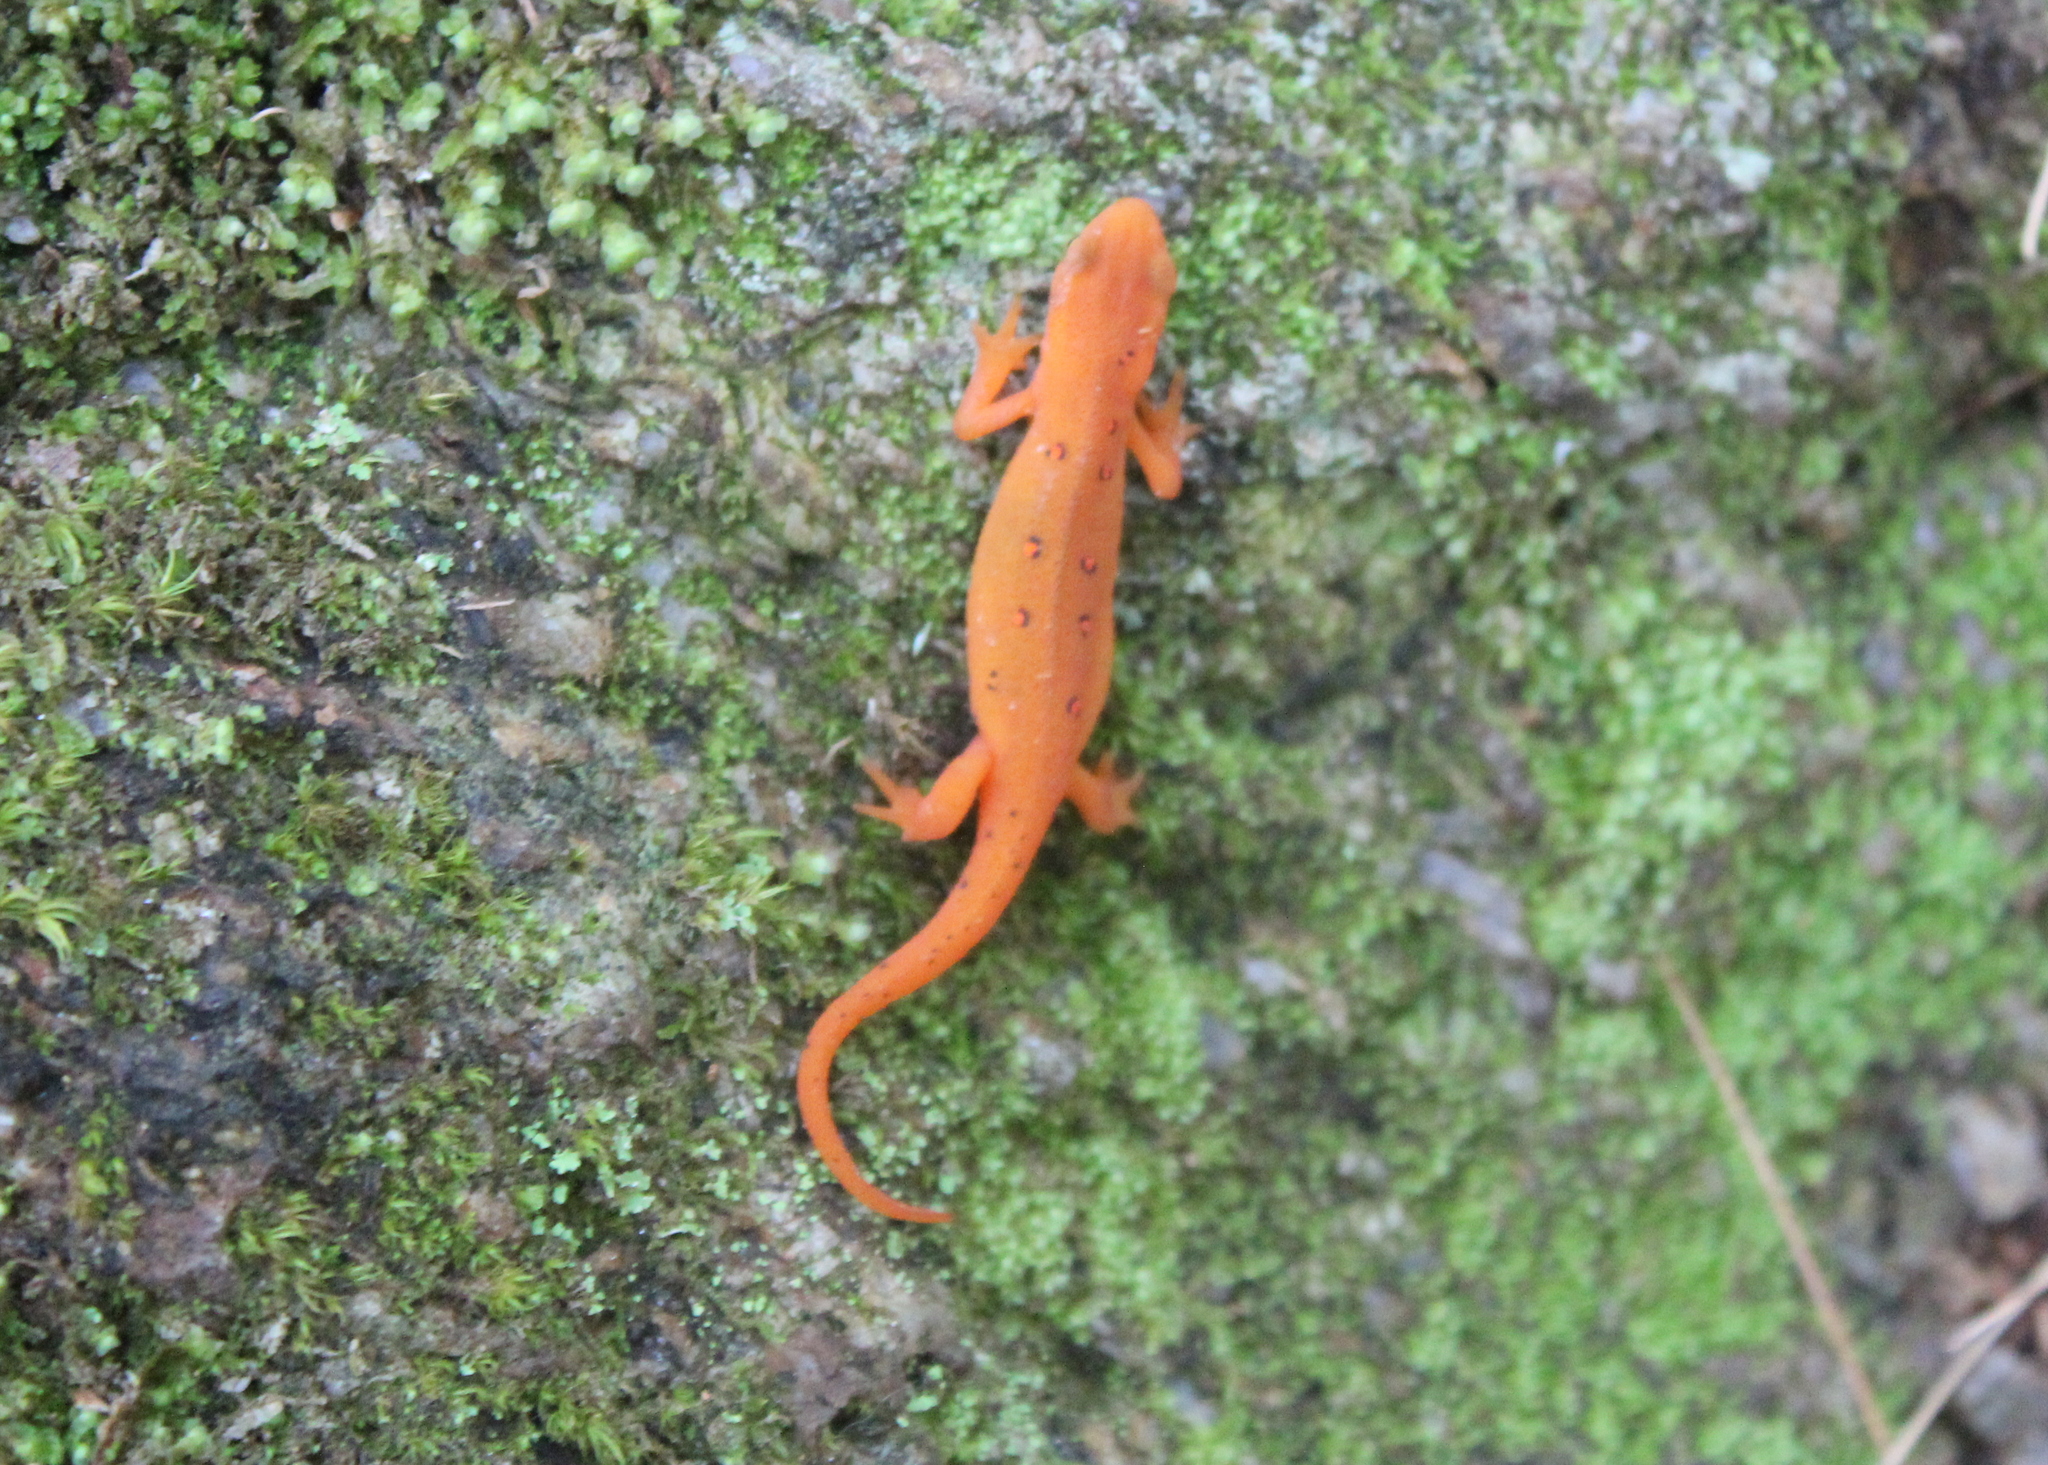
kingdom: Animalia
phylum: Chordata
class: Amphibia
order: Caudata
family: Salamandridae
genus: Notophthalmus
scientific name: Notophthalmus viridescens
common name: Eastern newt
